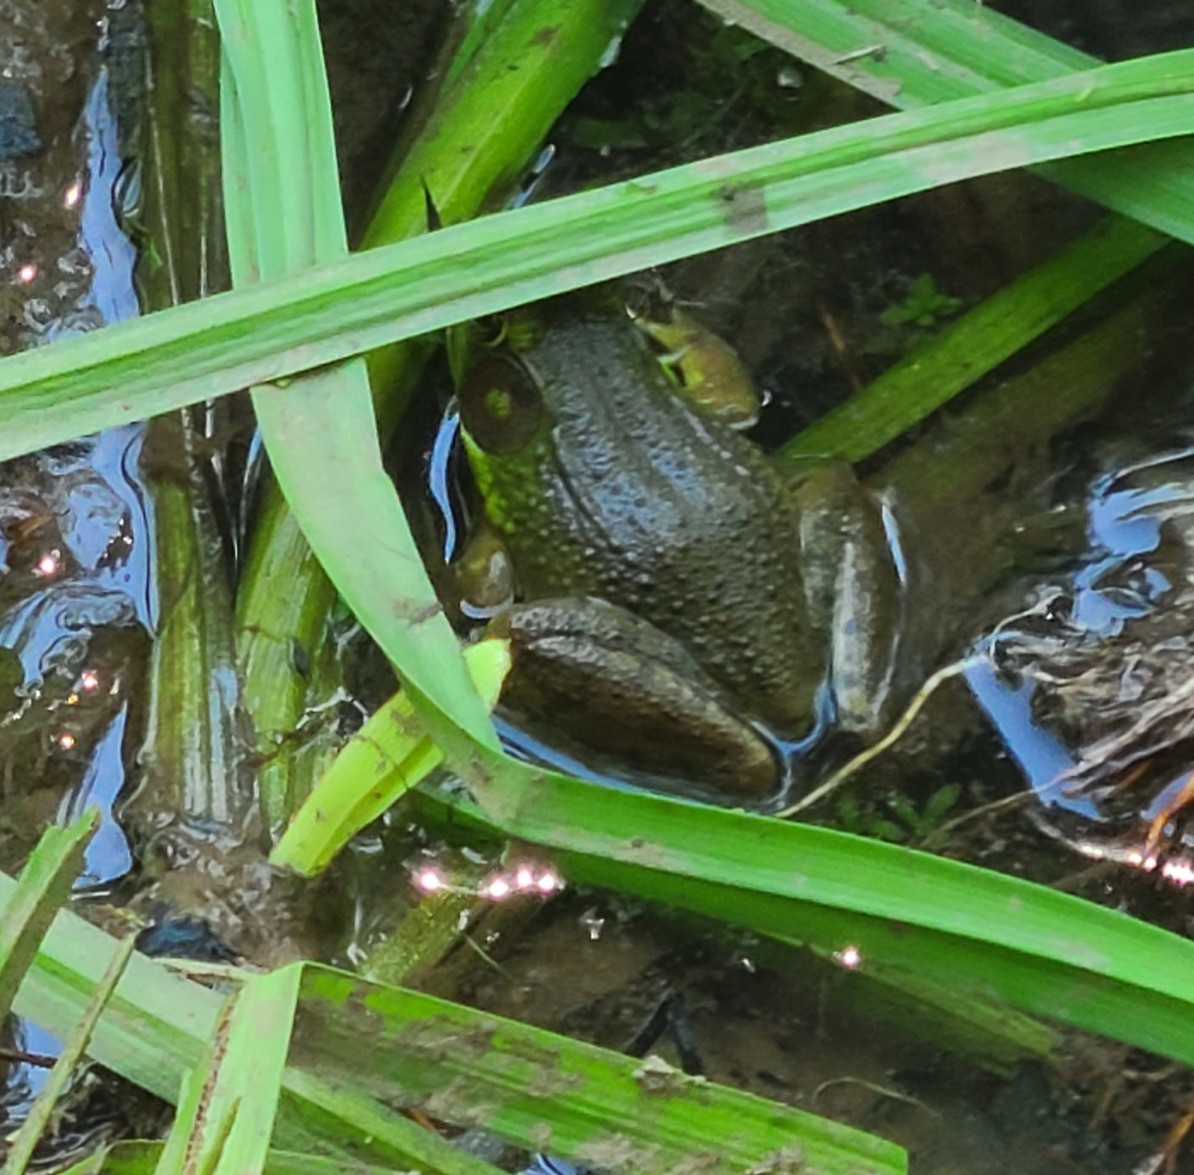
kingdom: Animalia
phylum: Chordata
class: Amphibia
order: Anura
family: Ranidae
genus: Lithobates
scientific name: Lithobates clamitans
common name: Green frog
